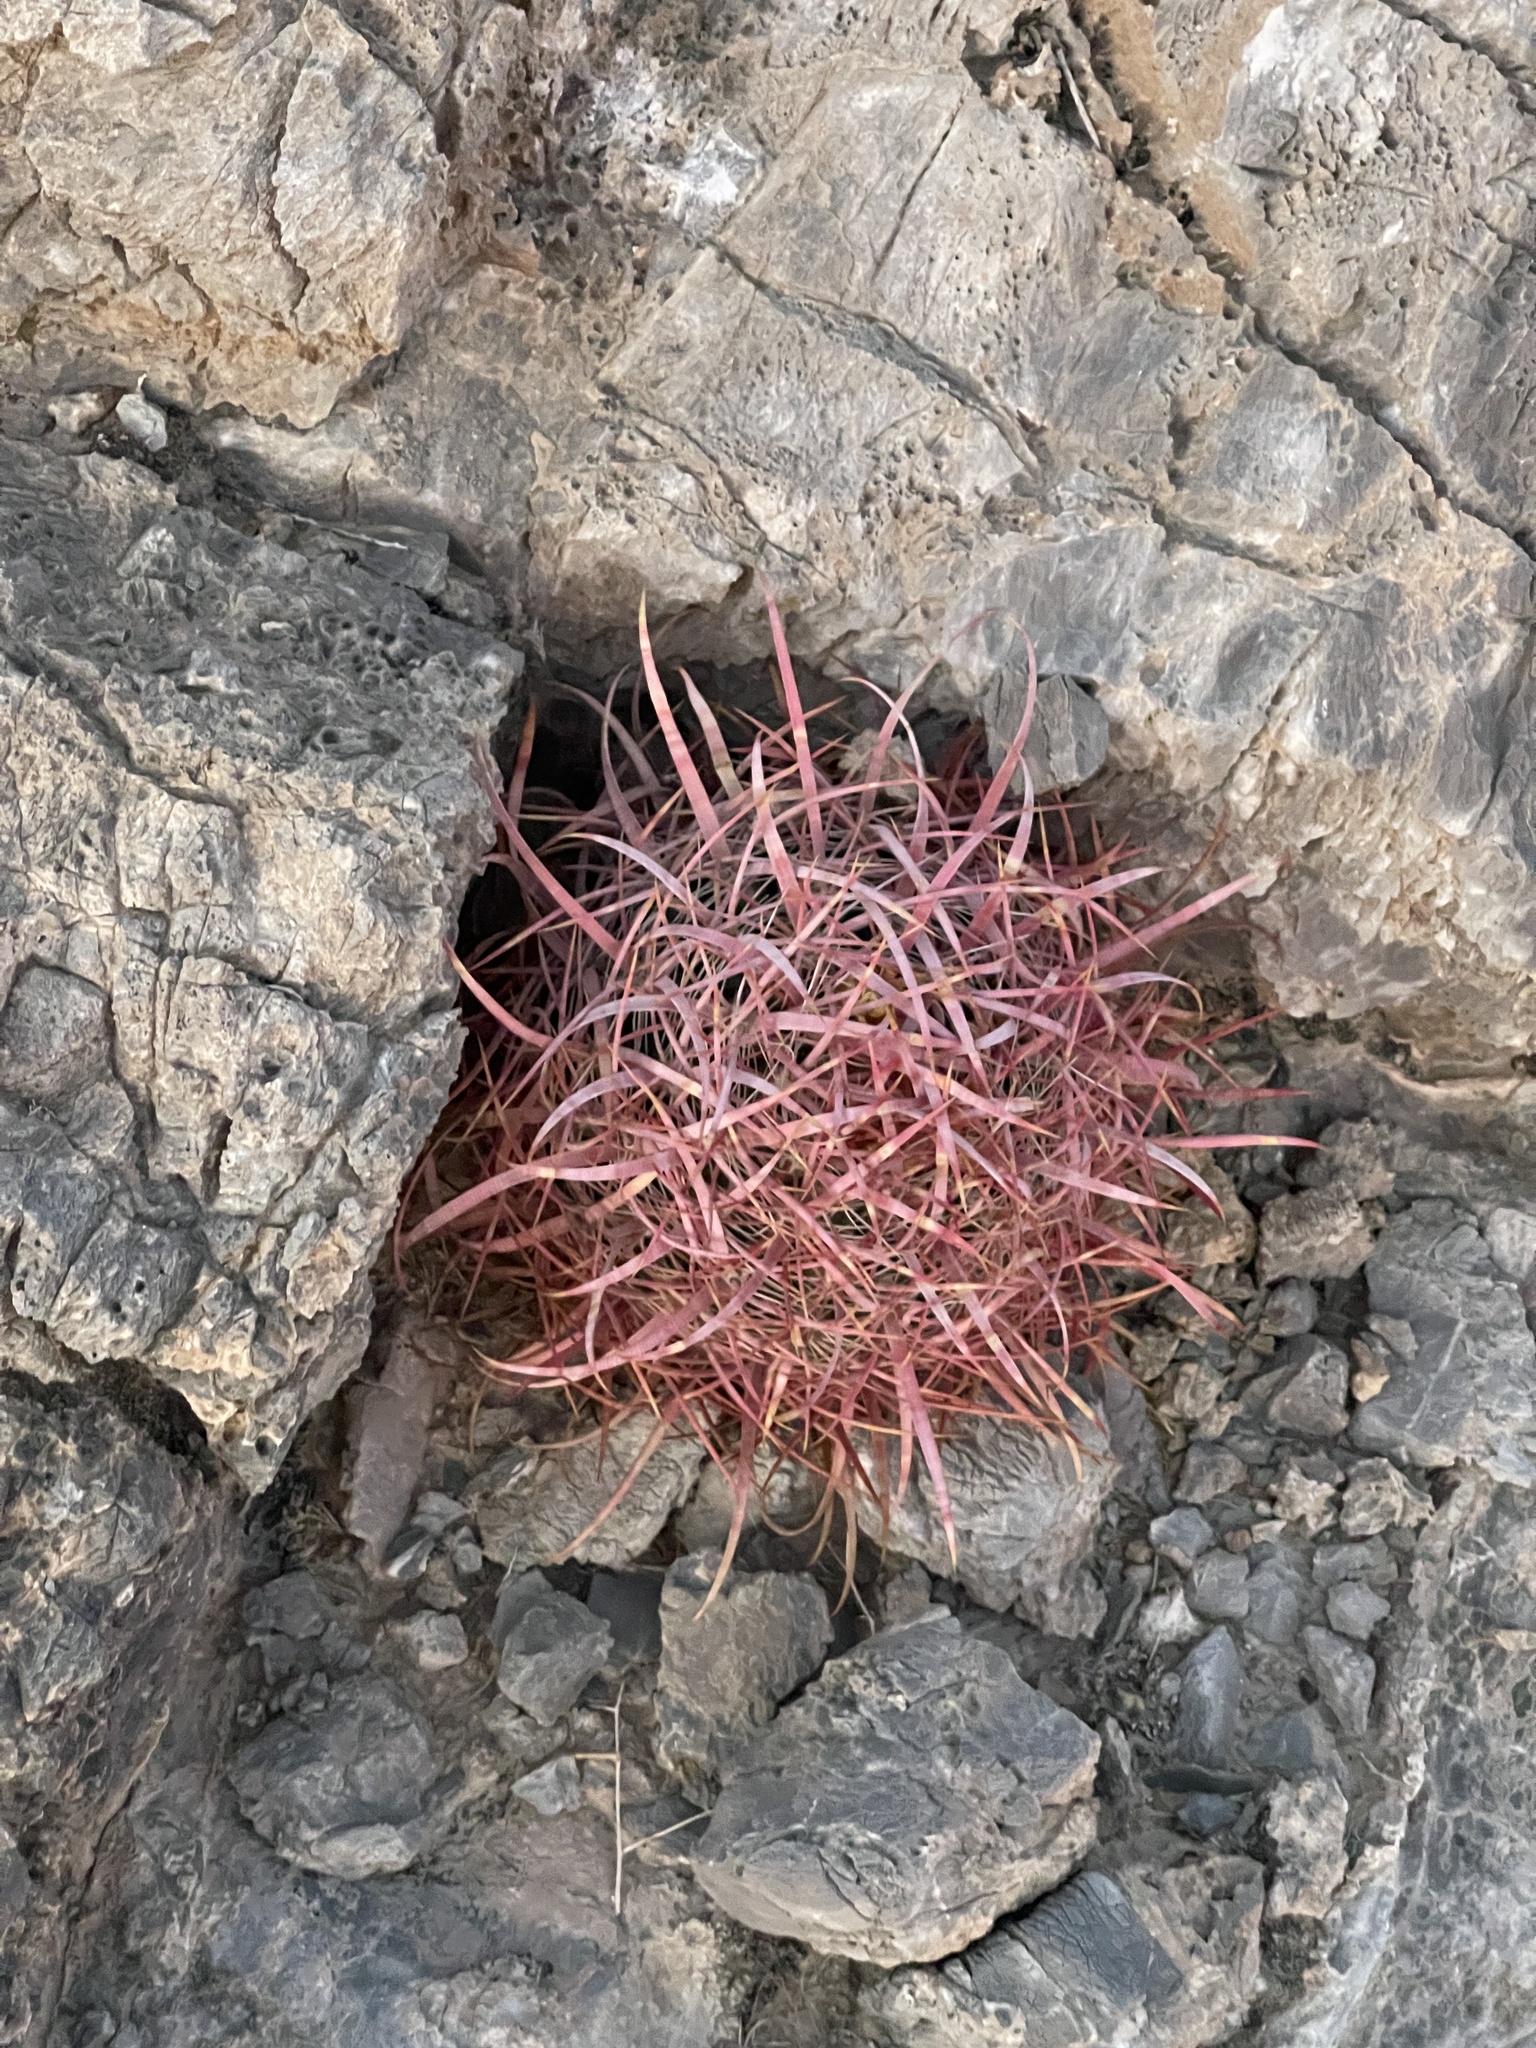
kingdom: Plantae
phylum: Tracheophyta
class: Magnoliopsida
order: Caryophyllales
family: Cactaceae
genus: Ferocactus
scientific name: Ferocactus cylindraceus
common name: California barrel cactus
